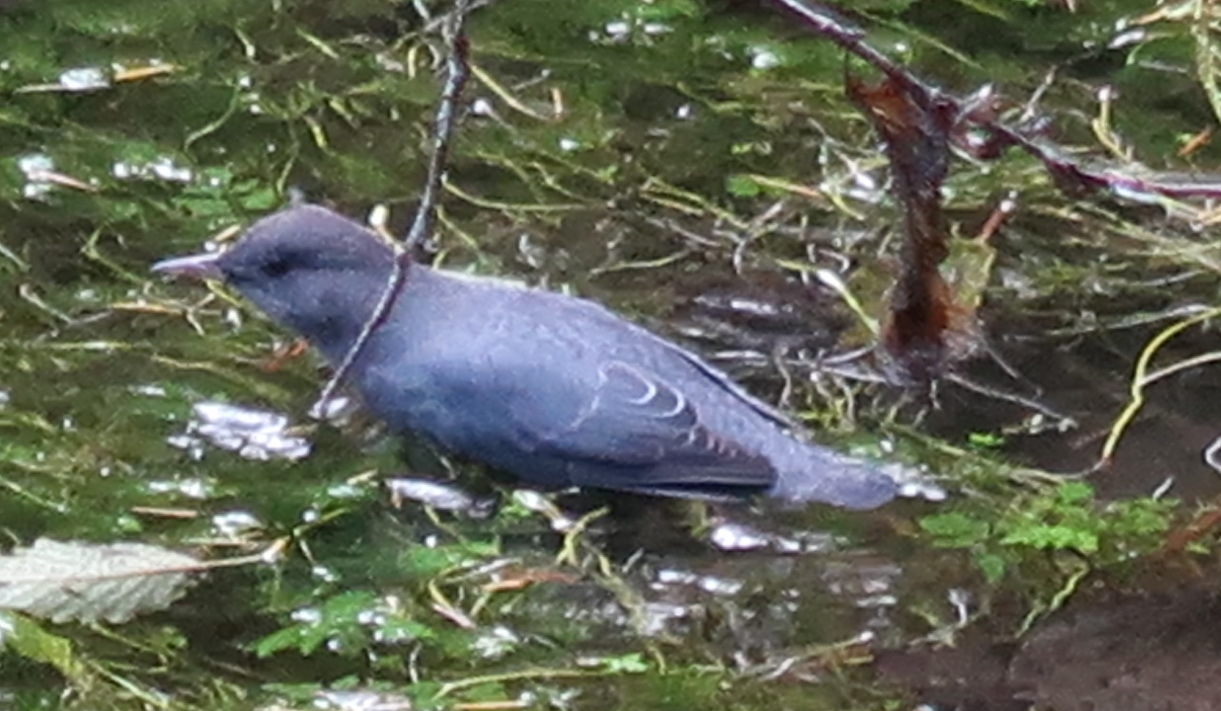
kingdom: Animalia
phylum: Chordata
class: Aves
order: Passeriformes
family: Cinclidae
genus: Cinclus
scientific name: Cinclus mexicanus
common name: American dipper
